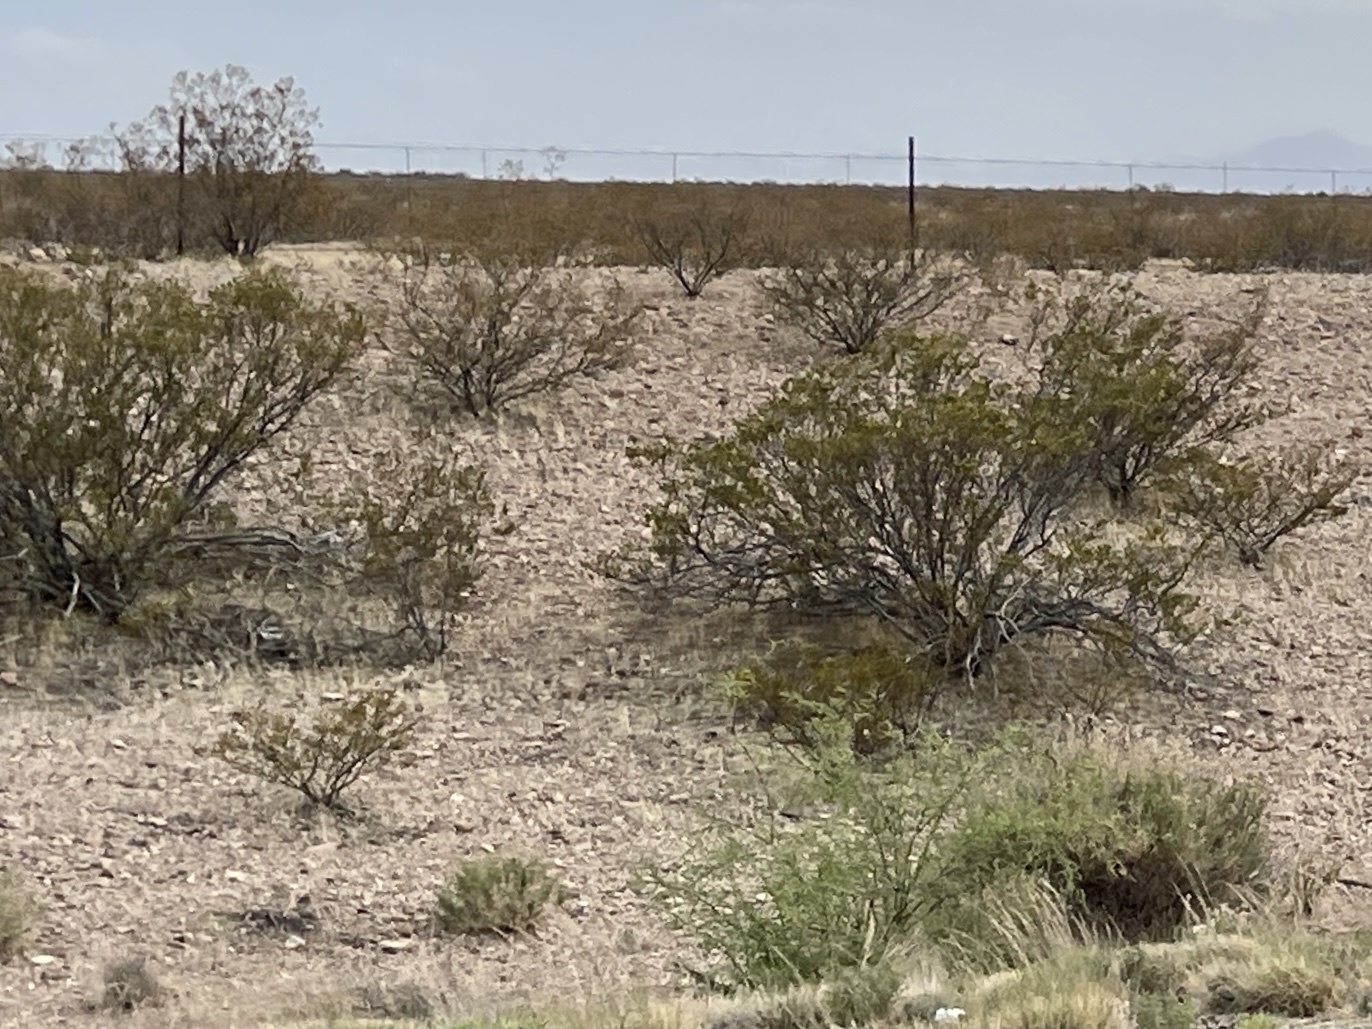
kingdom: Plantae
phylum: Tracheophyta
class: Magnoliopsida
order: Zygophyllales
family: Zygophyllaceae
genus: Larrea
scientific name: Larrea tridentata
